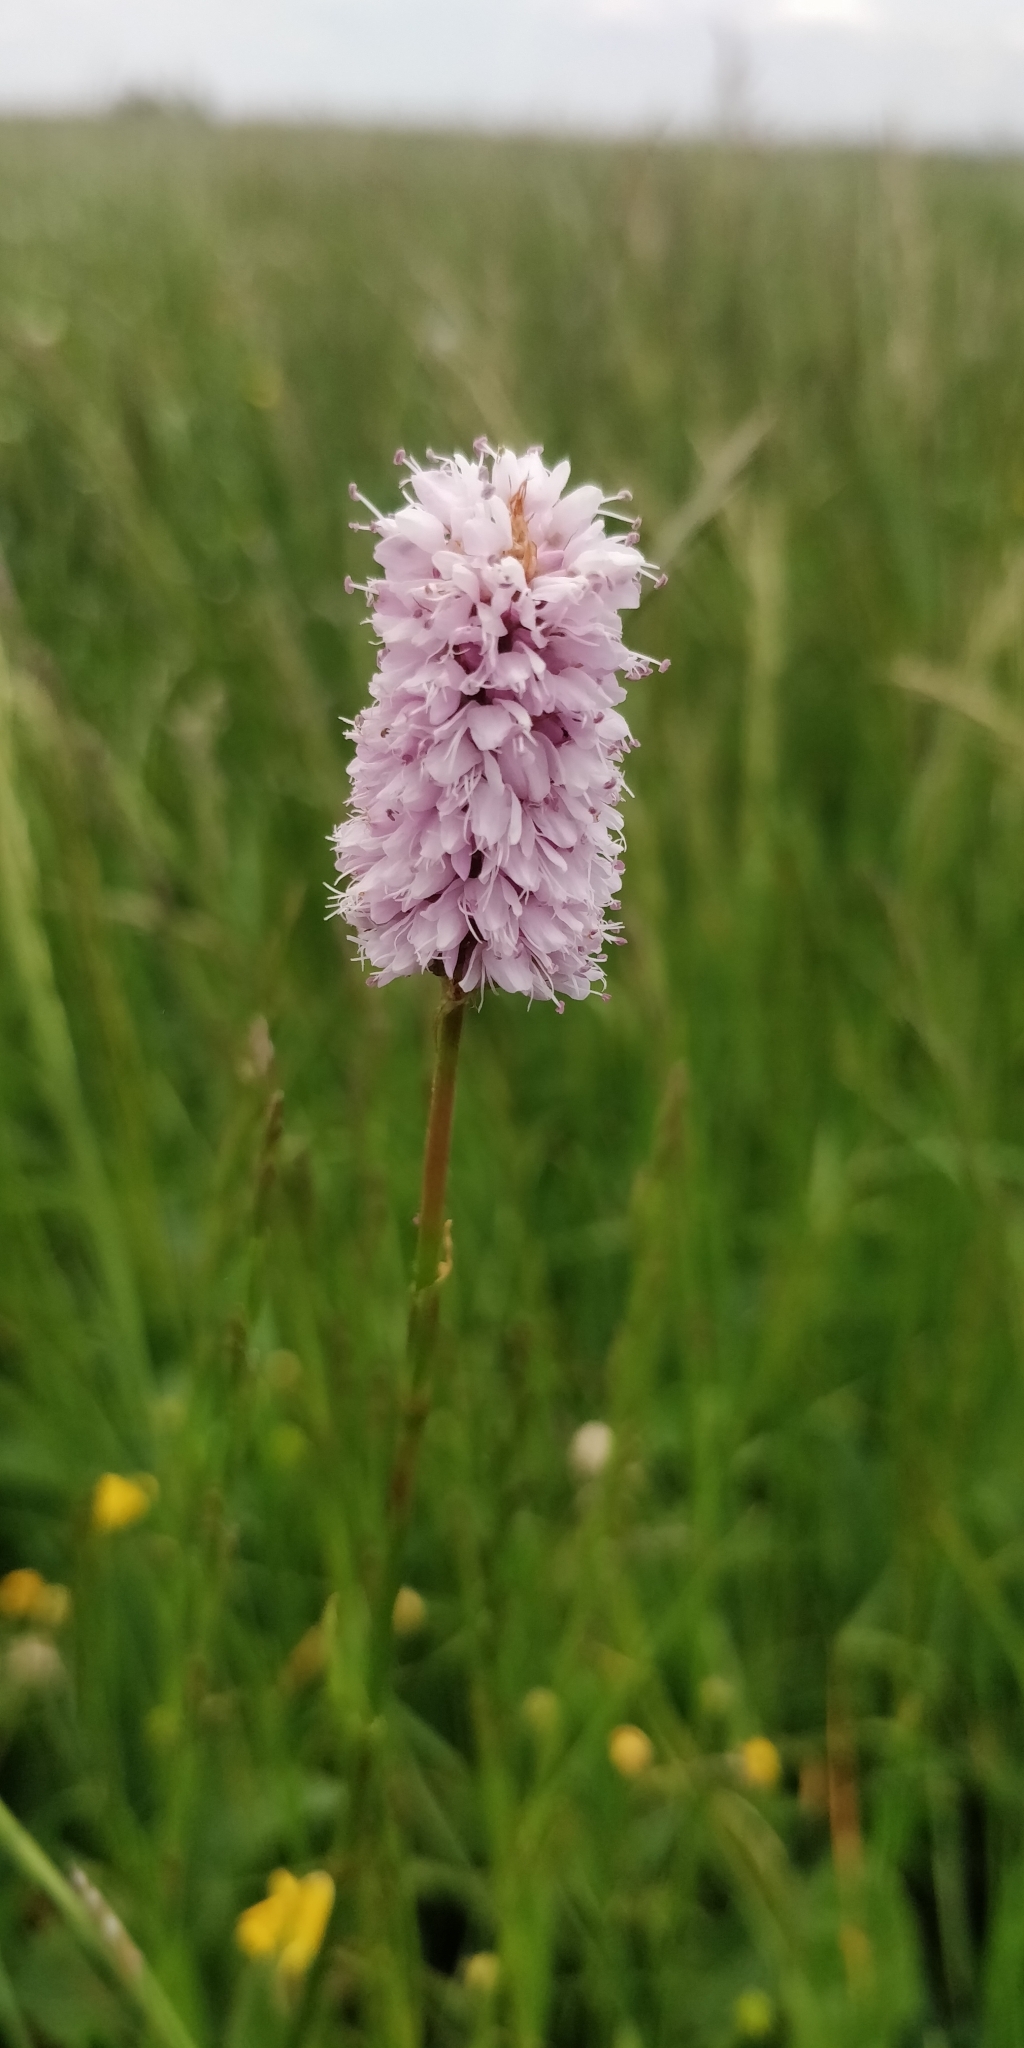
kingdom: Plantae
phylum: Tracheophyta
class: Magnoliopsida
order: Caryophyllales
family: Polygonaceae
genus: Bistorta
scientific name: Bistorta officinalis
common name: Common bistort
